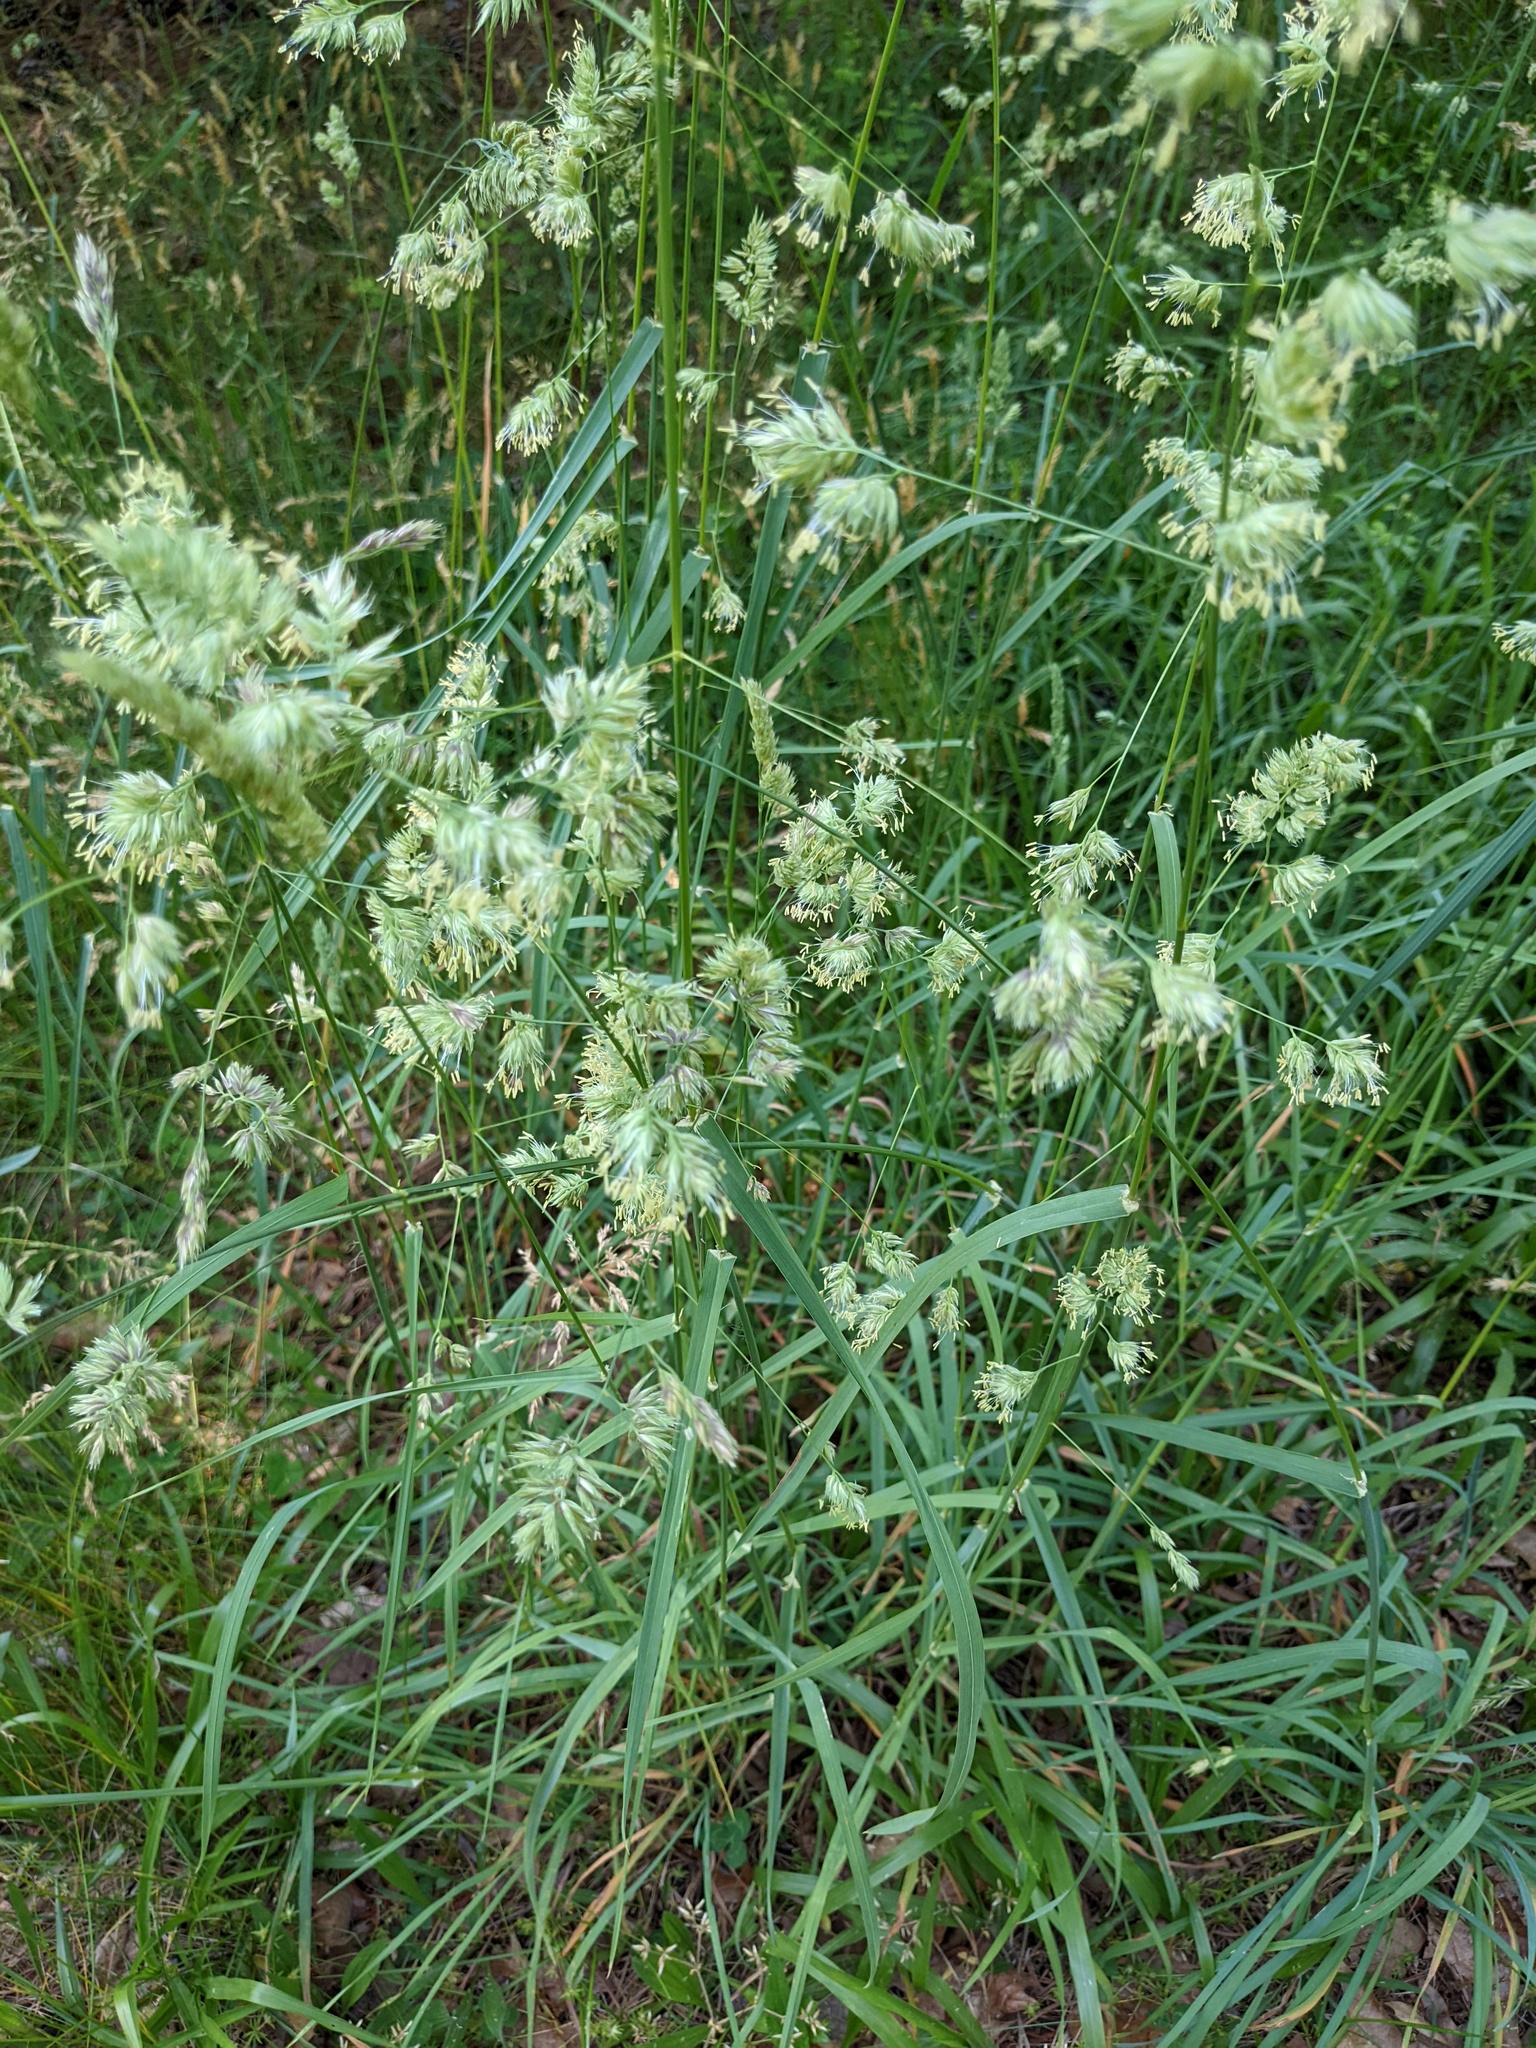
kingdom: Plantae
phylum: Tracheophyta
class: Liliopsida
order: Poales
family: Poaceae
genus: Dactylis
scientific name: Dactylis glomerata
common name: Orchardgrass
